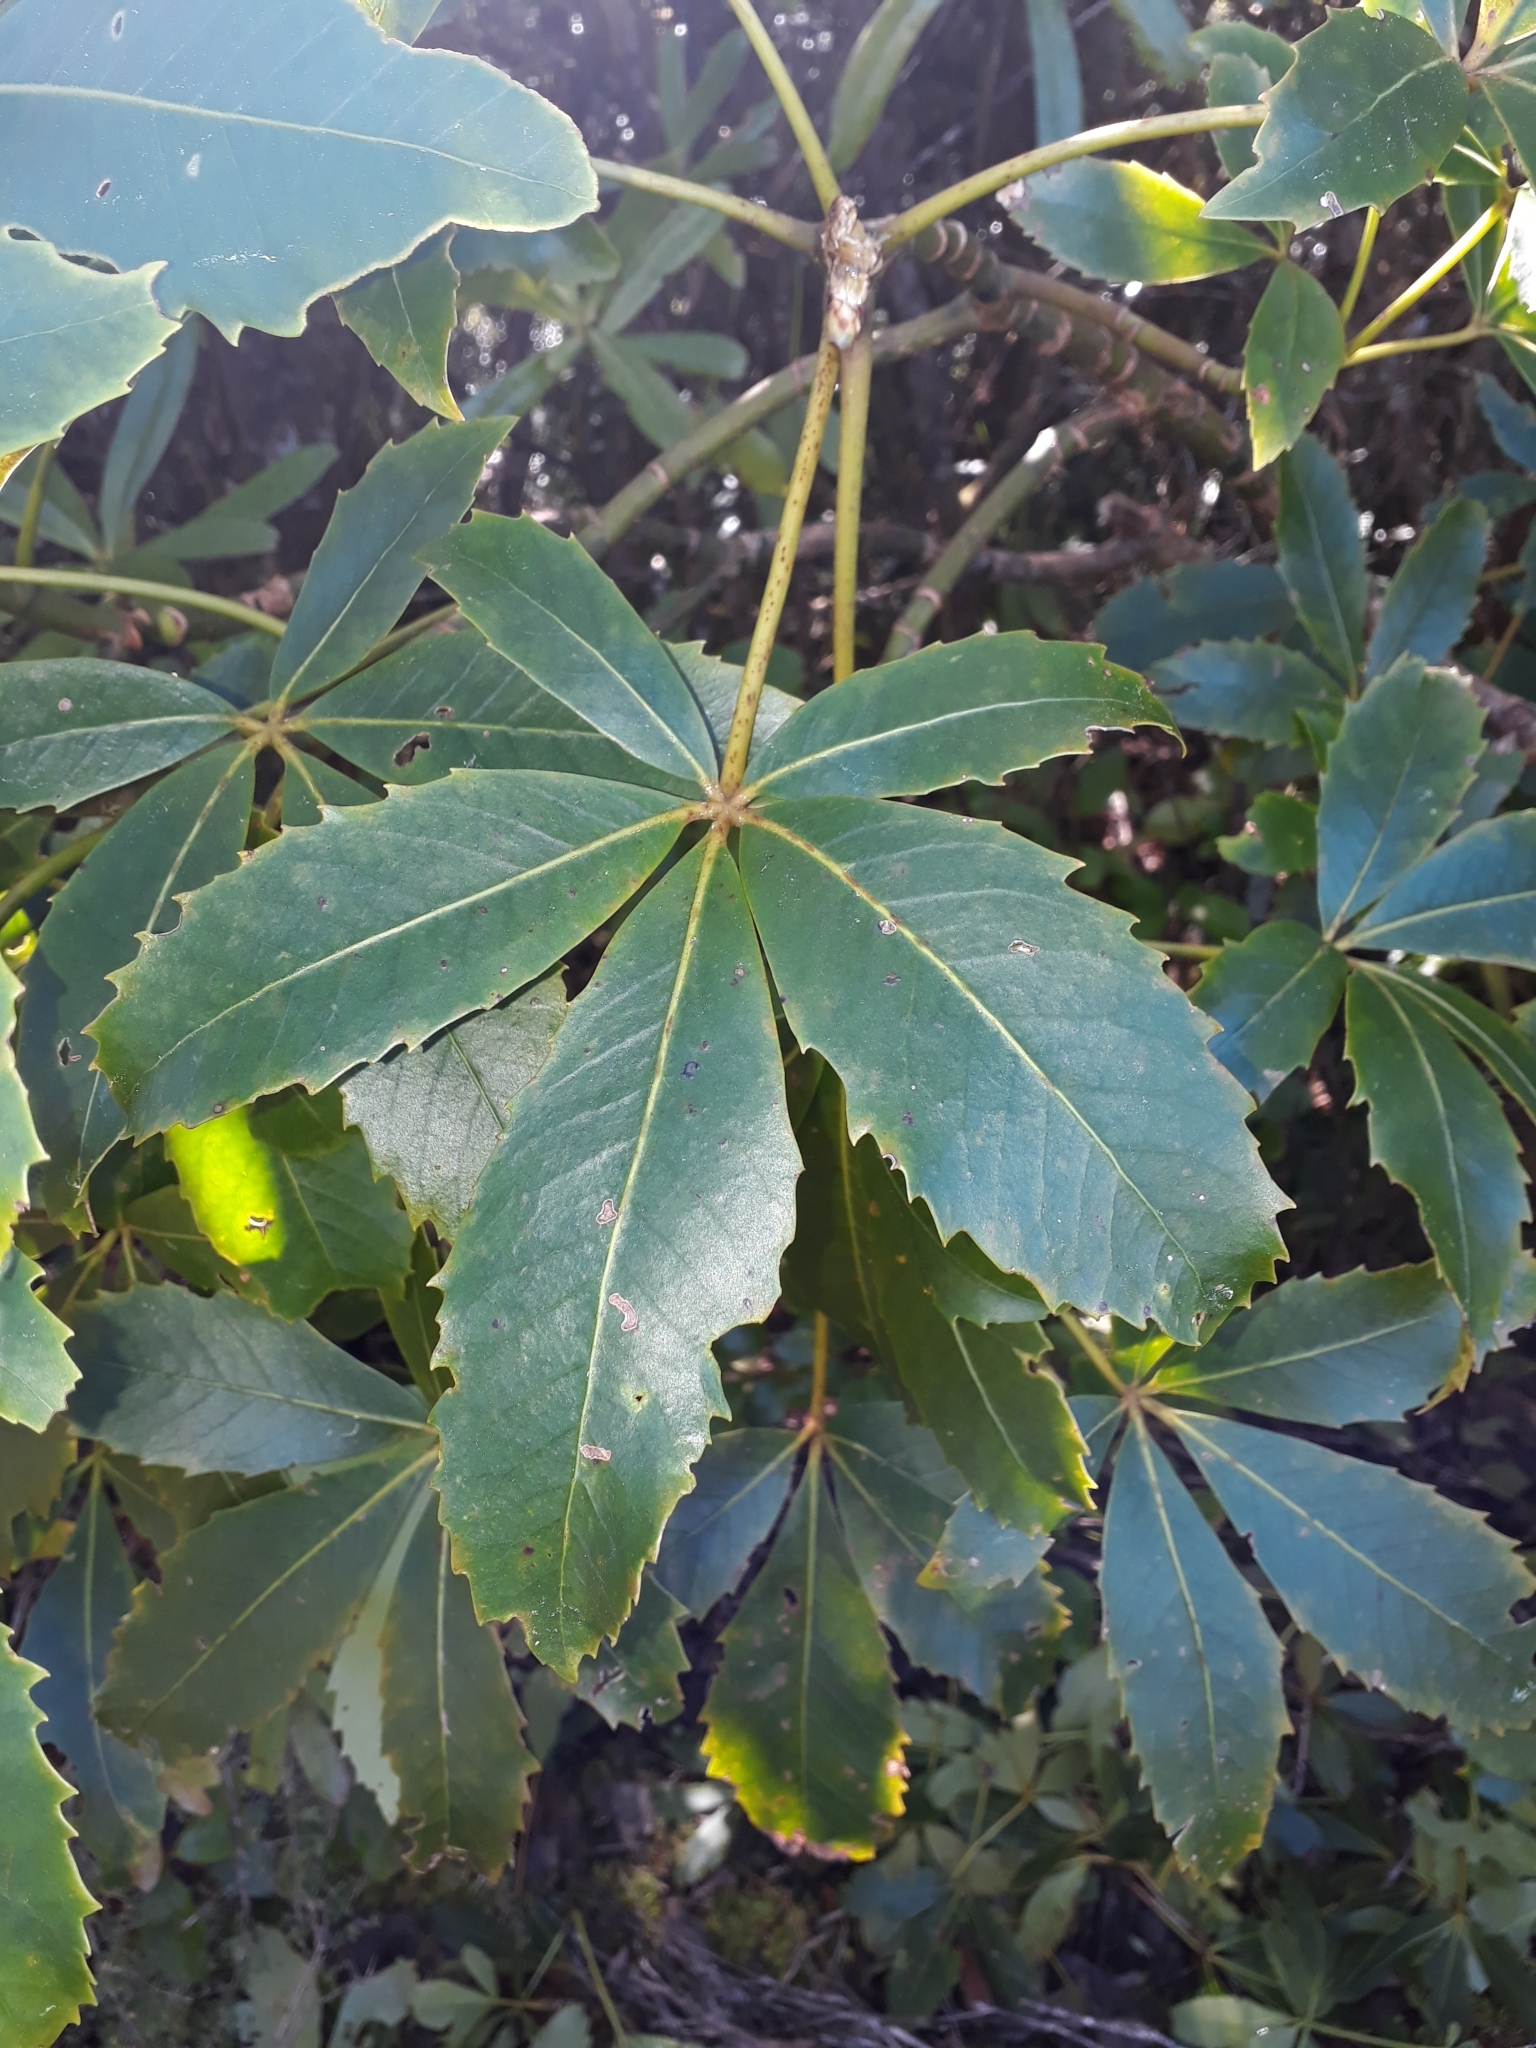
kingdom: Animalia
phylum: Chordata
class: Mammalia
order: Diprotodontia
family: Phalangeridae
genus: Trichosurus
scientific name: Trichosurus vulpecula
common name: Common brushtail
